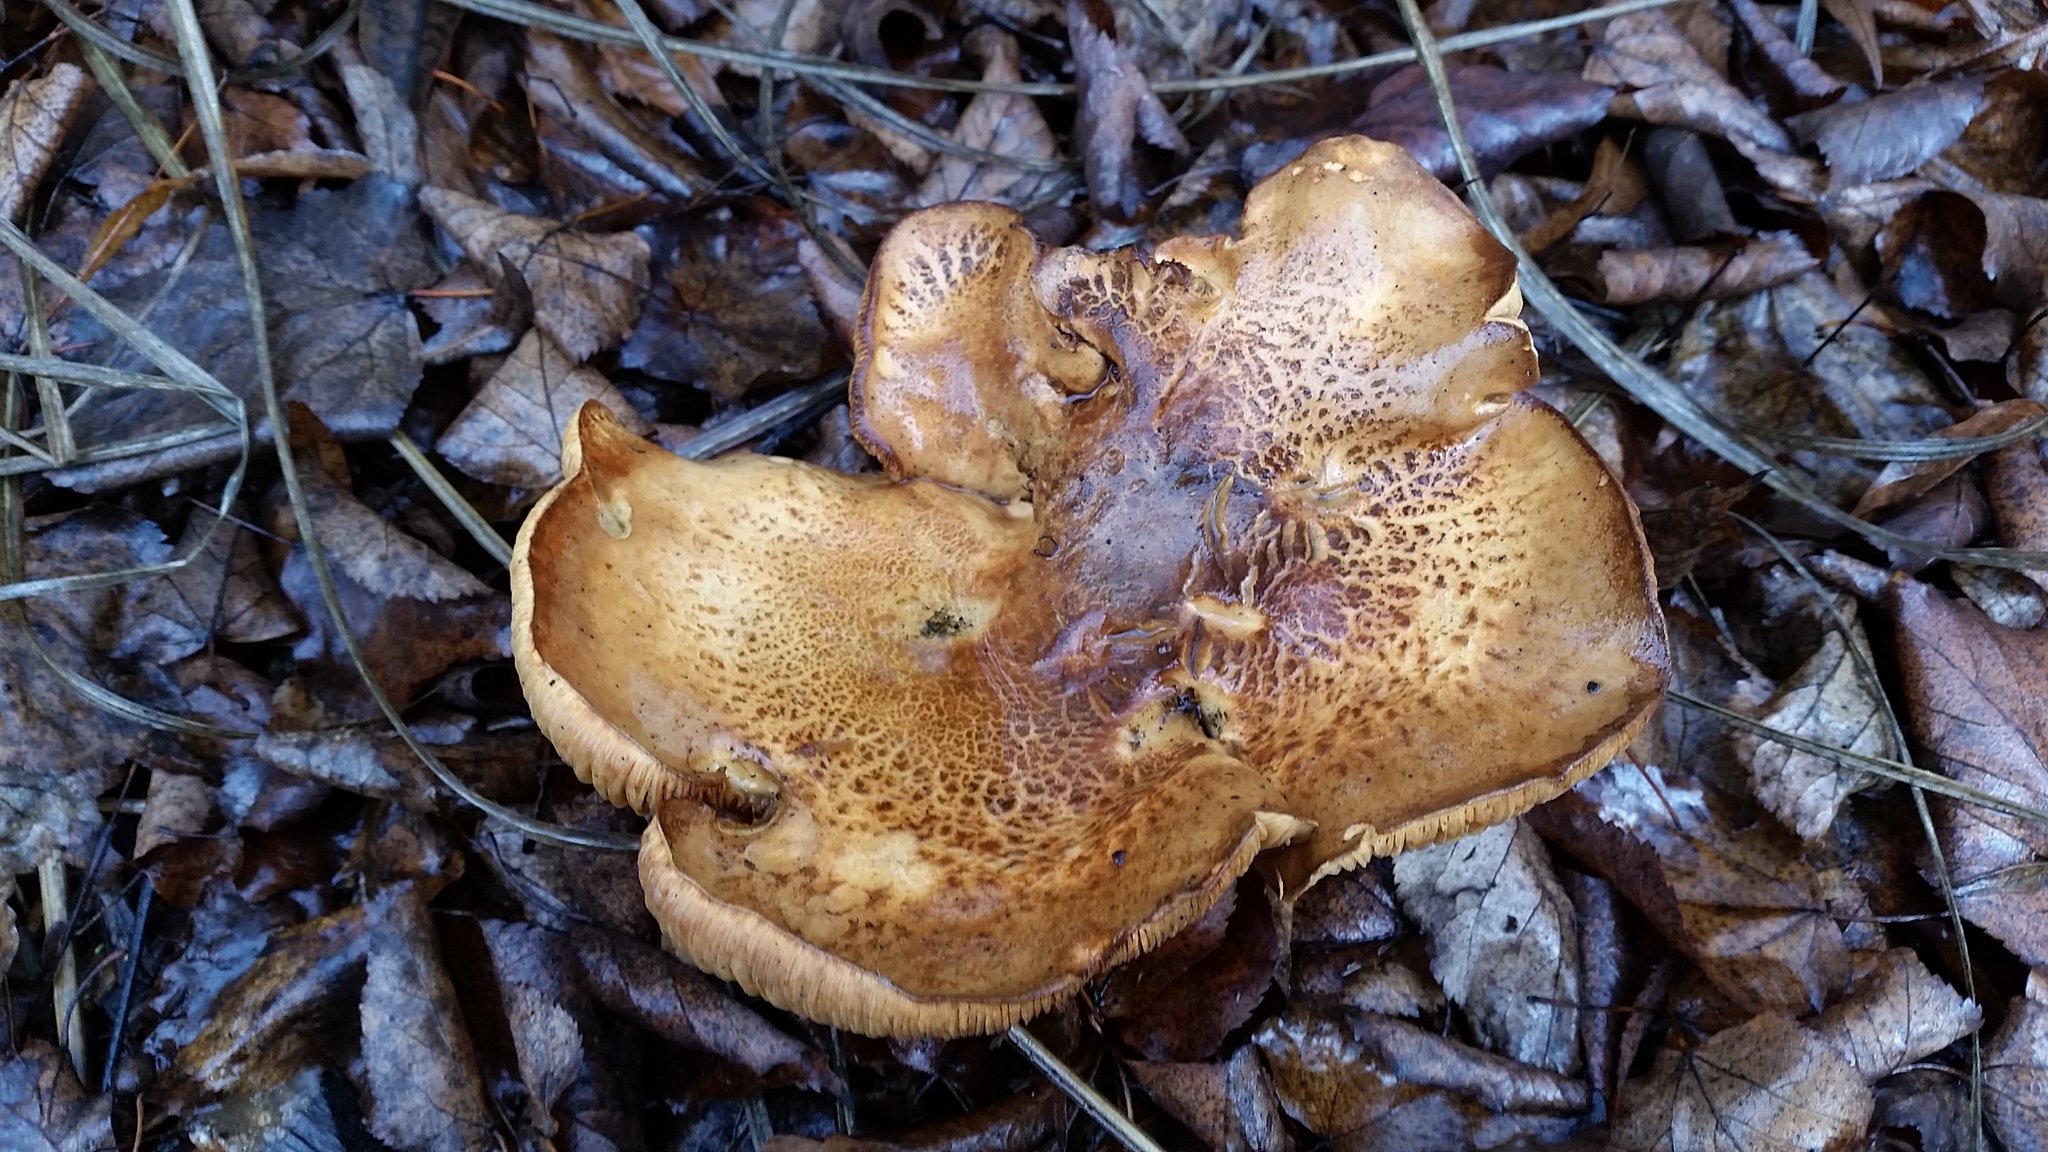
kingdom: Fungi
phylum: Basidiomycota
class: Agaricomycetes
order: Agaricales
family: Tricholomataceae
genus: Melanoleuca
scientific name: Melanoleuca dryophila
